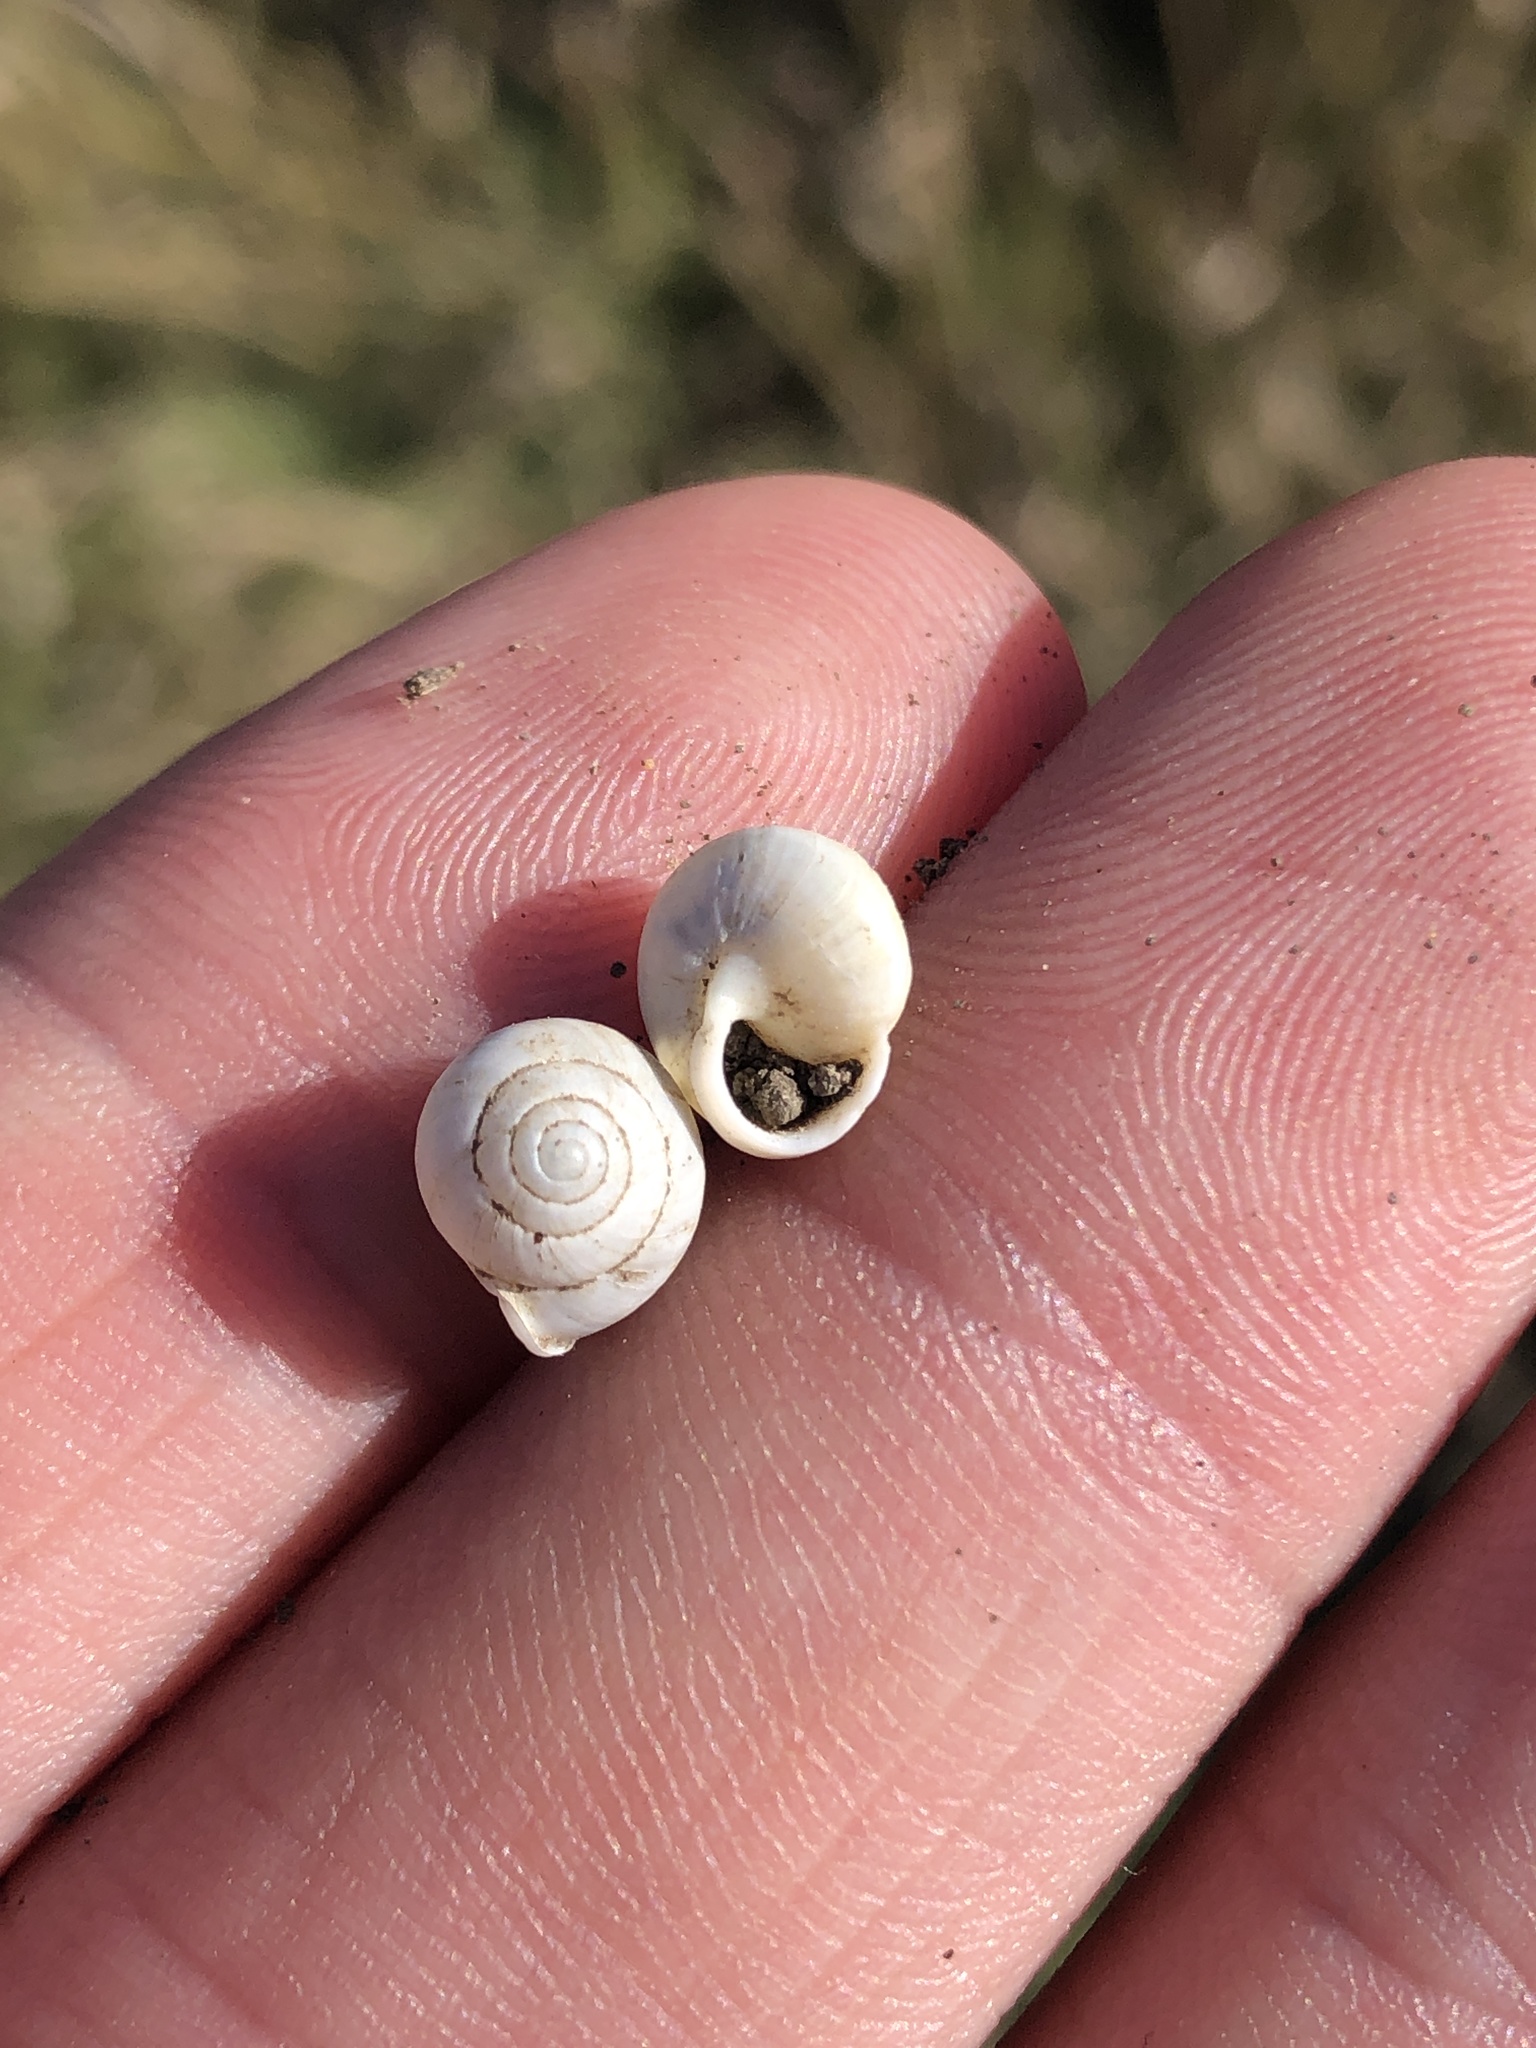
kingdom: Animalia
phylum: Mollusca
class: Gastropoda
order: Cycloneritida
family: Helicinidae
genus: Helicina
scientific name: Helicina orbiculata
